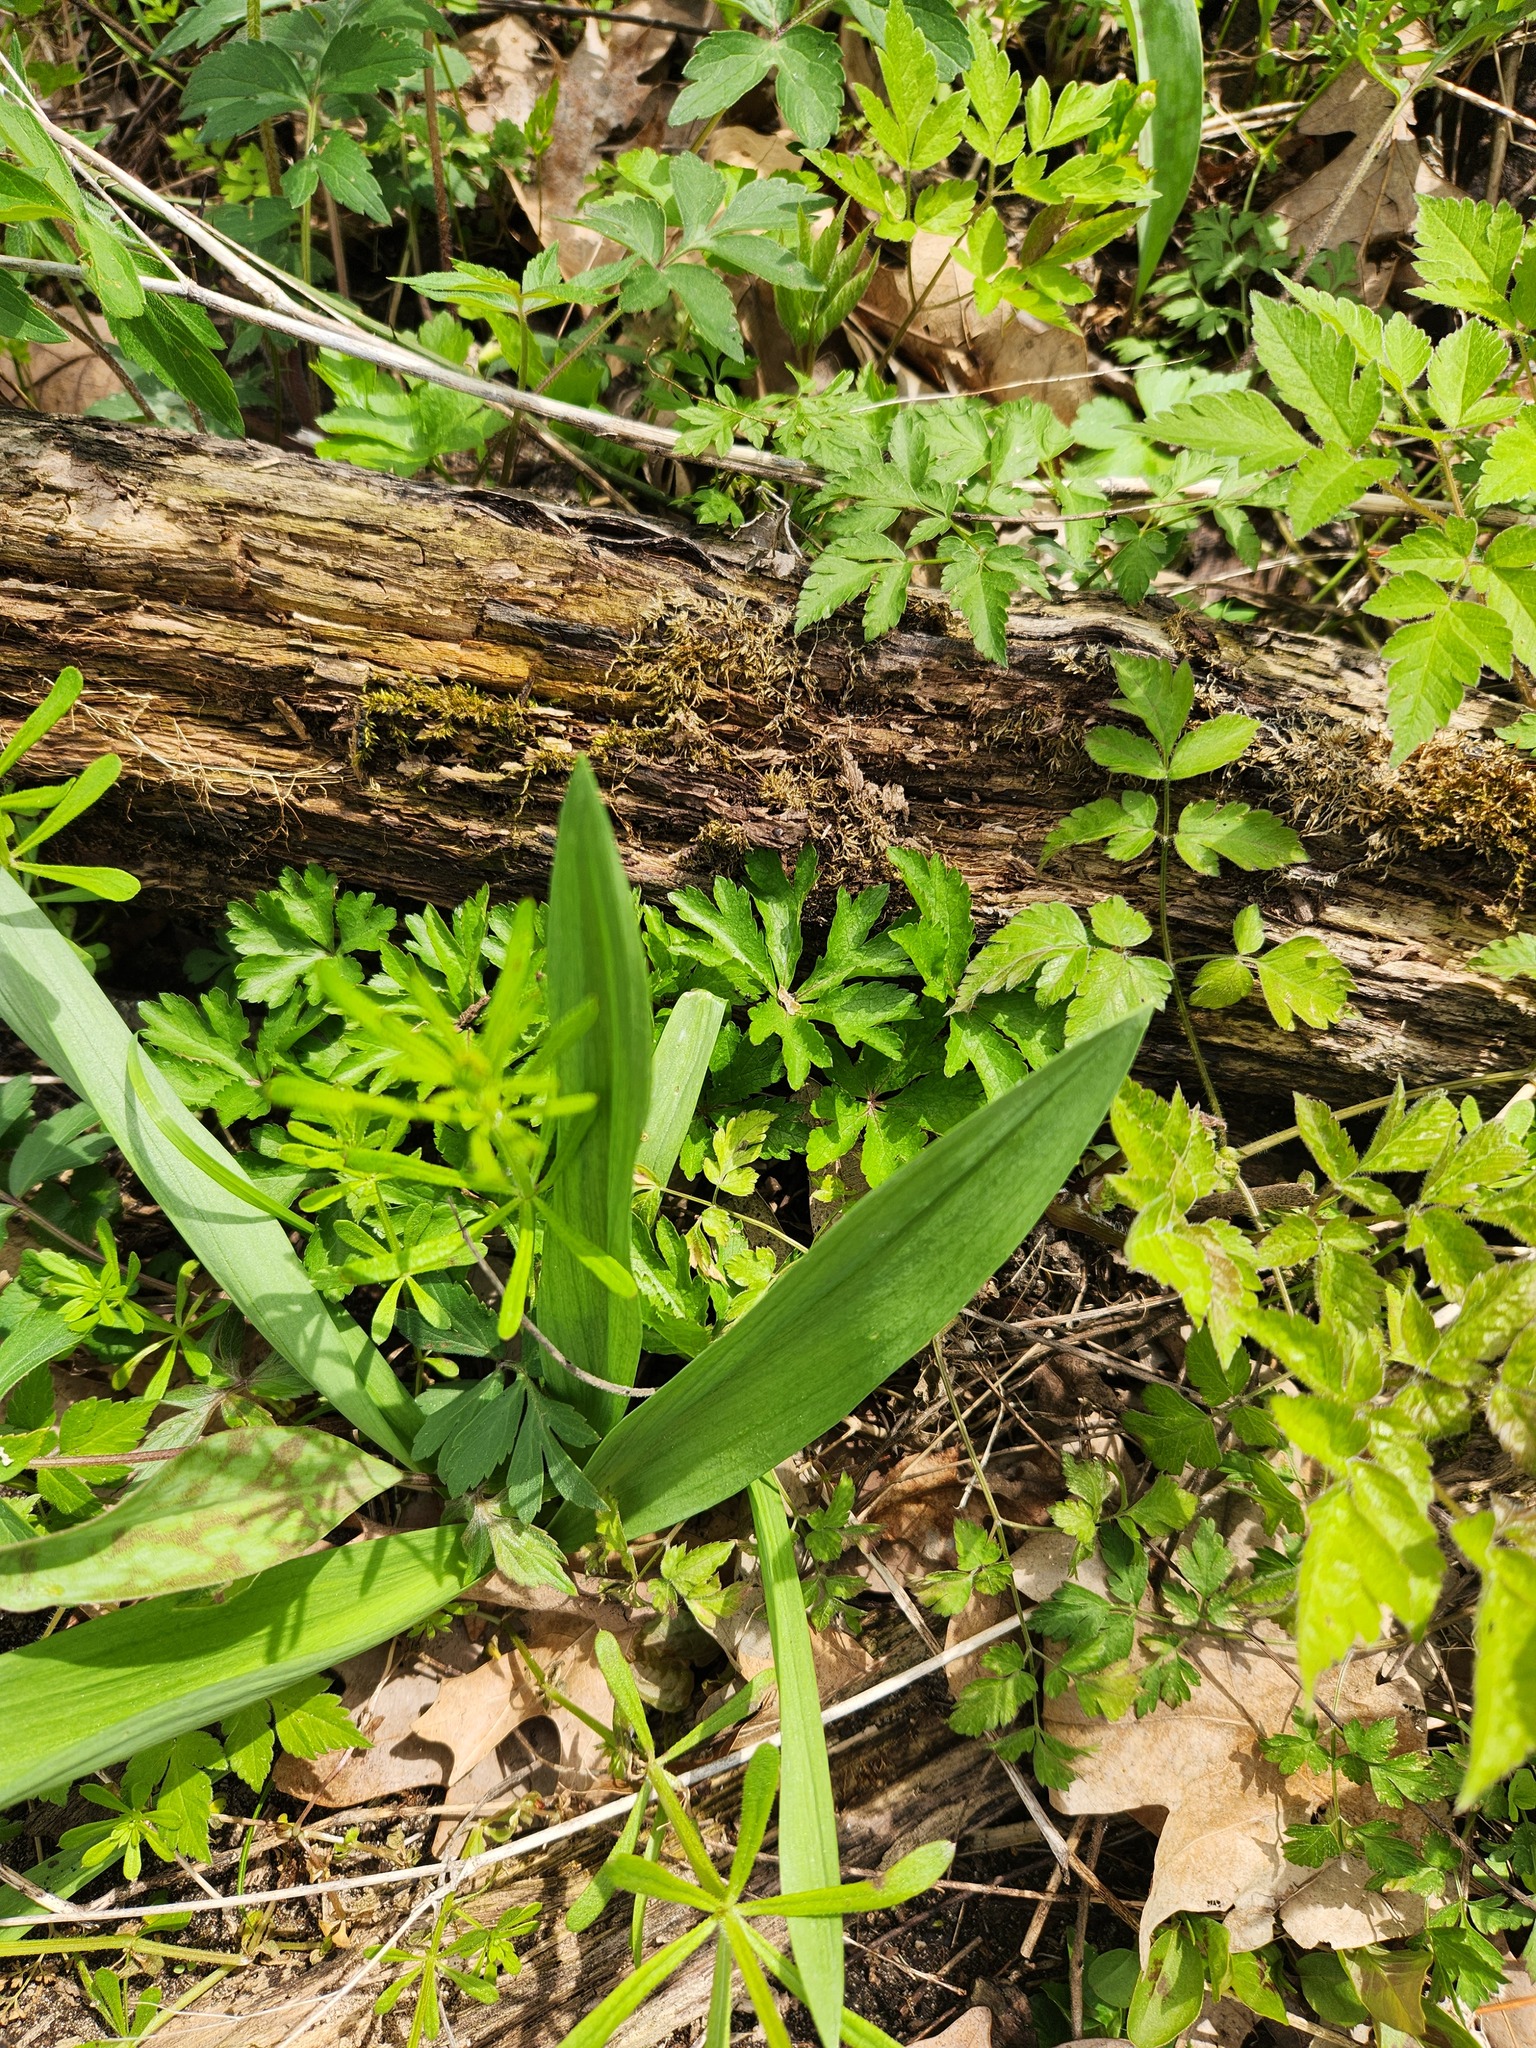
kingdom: Plantae
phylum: Tracheophyta
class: Liliopsida
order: Asparagales
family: Amaryllidaceae
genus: Allium
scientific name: Allium tricoccum
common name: Ramp
